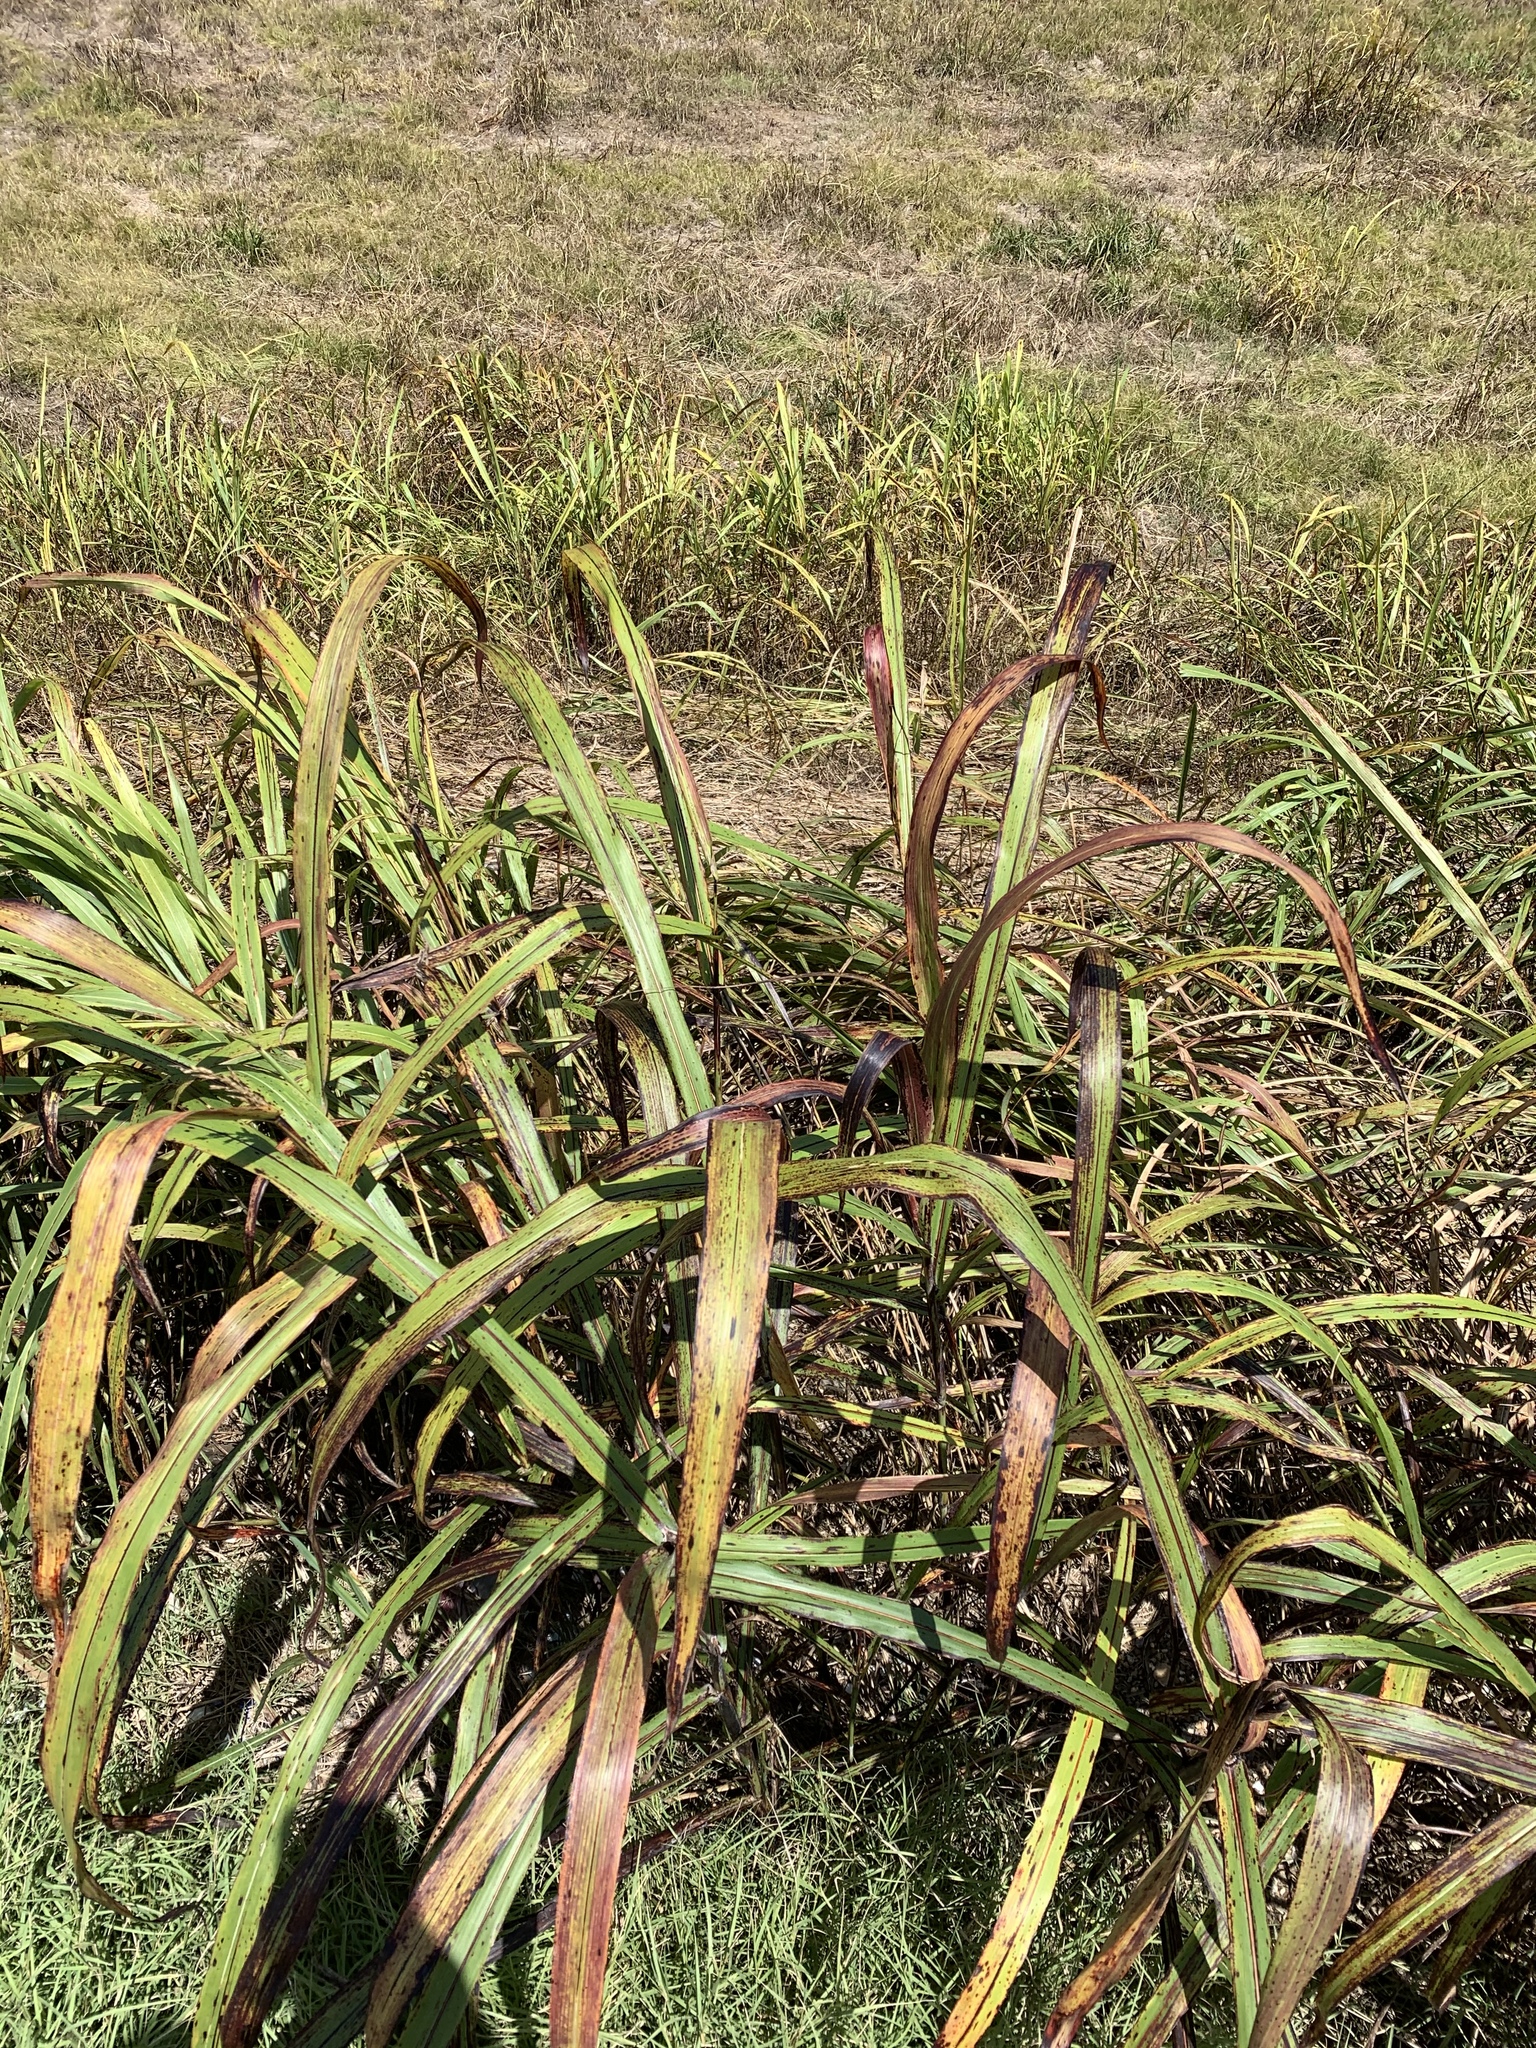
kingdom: Plantae
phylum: Tracheophyta
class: Liliopsida
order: Poales
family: Poaceae
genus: Sorghum
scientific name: Sorghum halepense
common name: Johnson-grass
